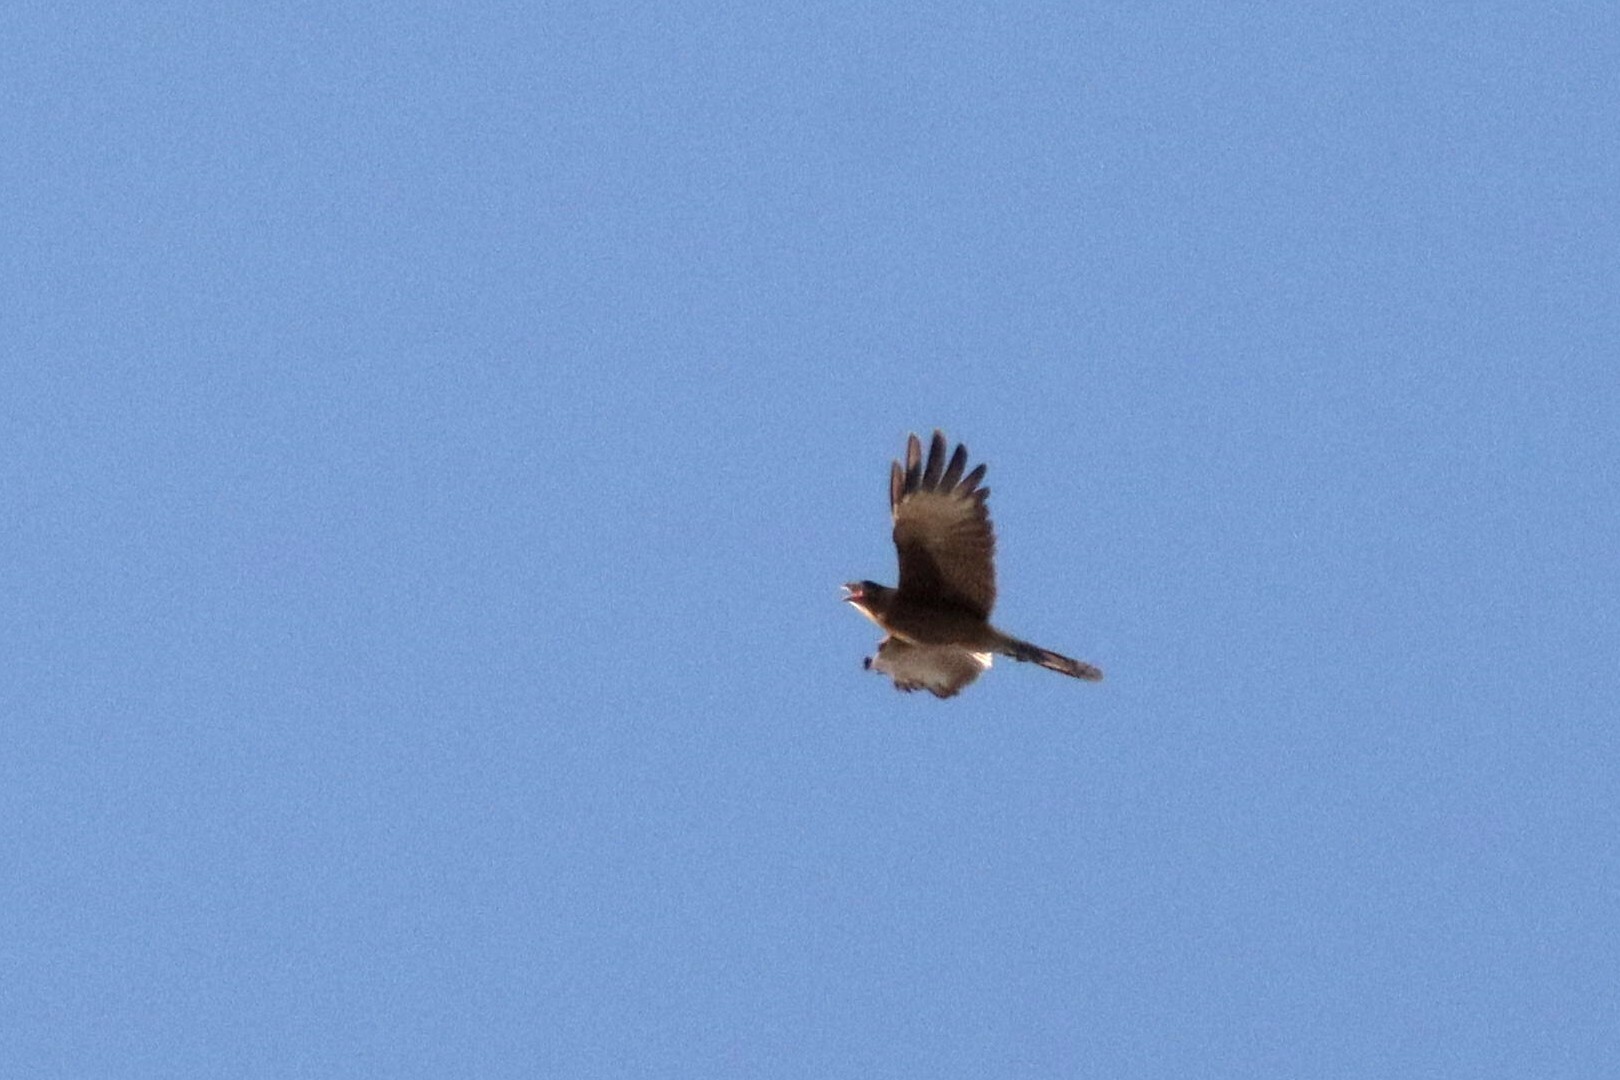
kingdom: Animalia
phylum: Chordata
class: Aves
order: Falconiformes
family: Falconidae
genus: Daptrius
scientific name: Daptrius
